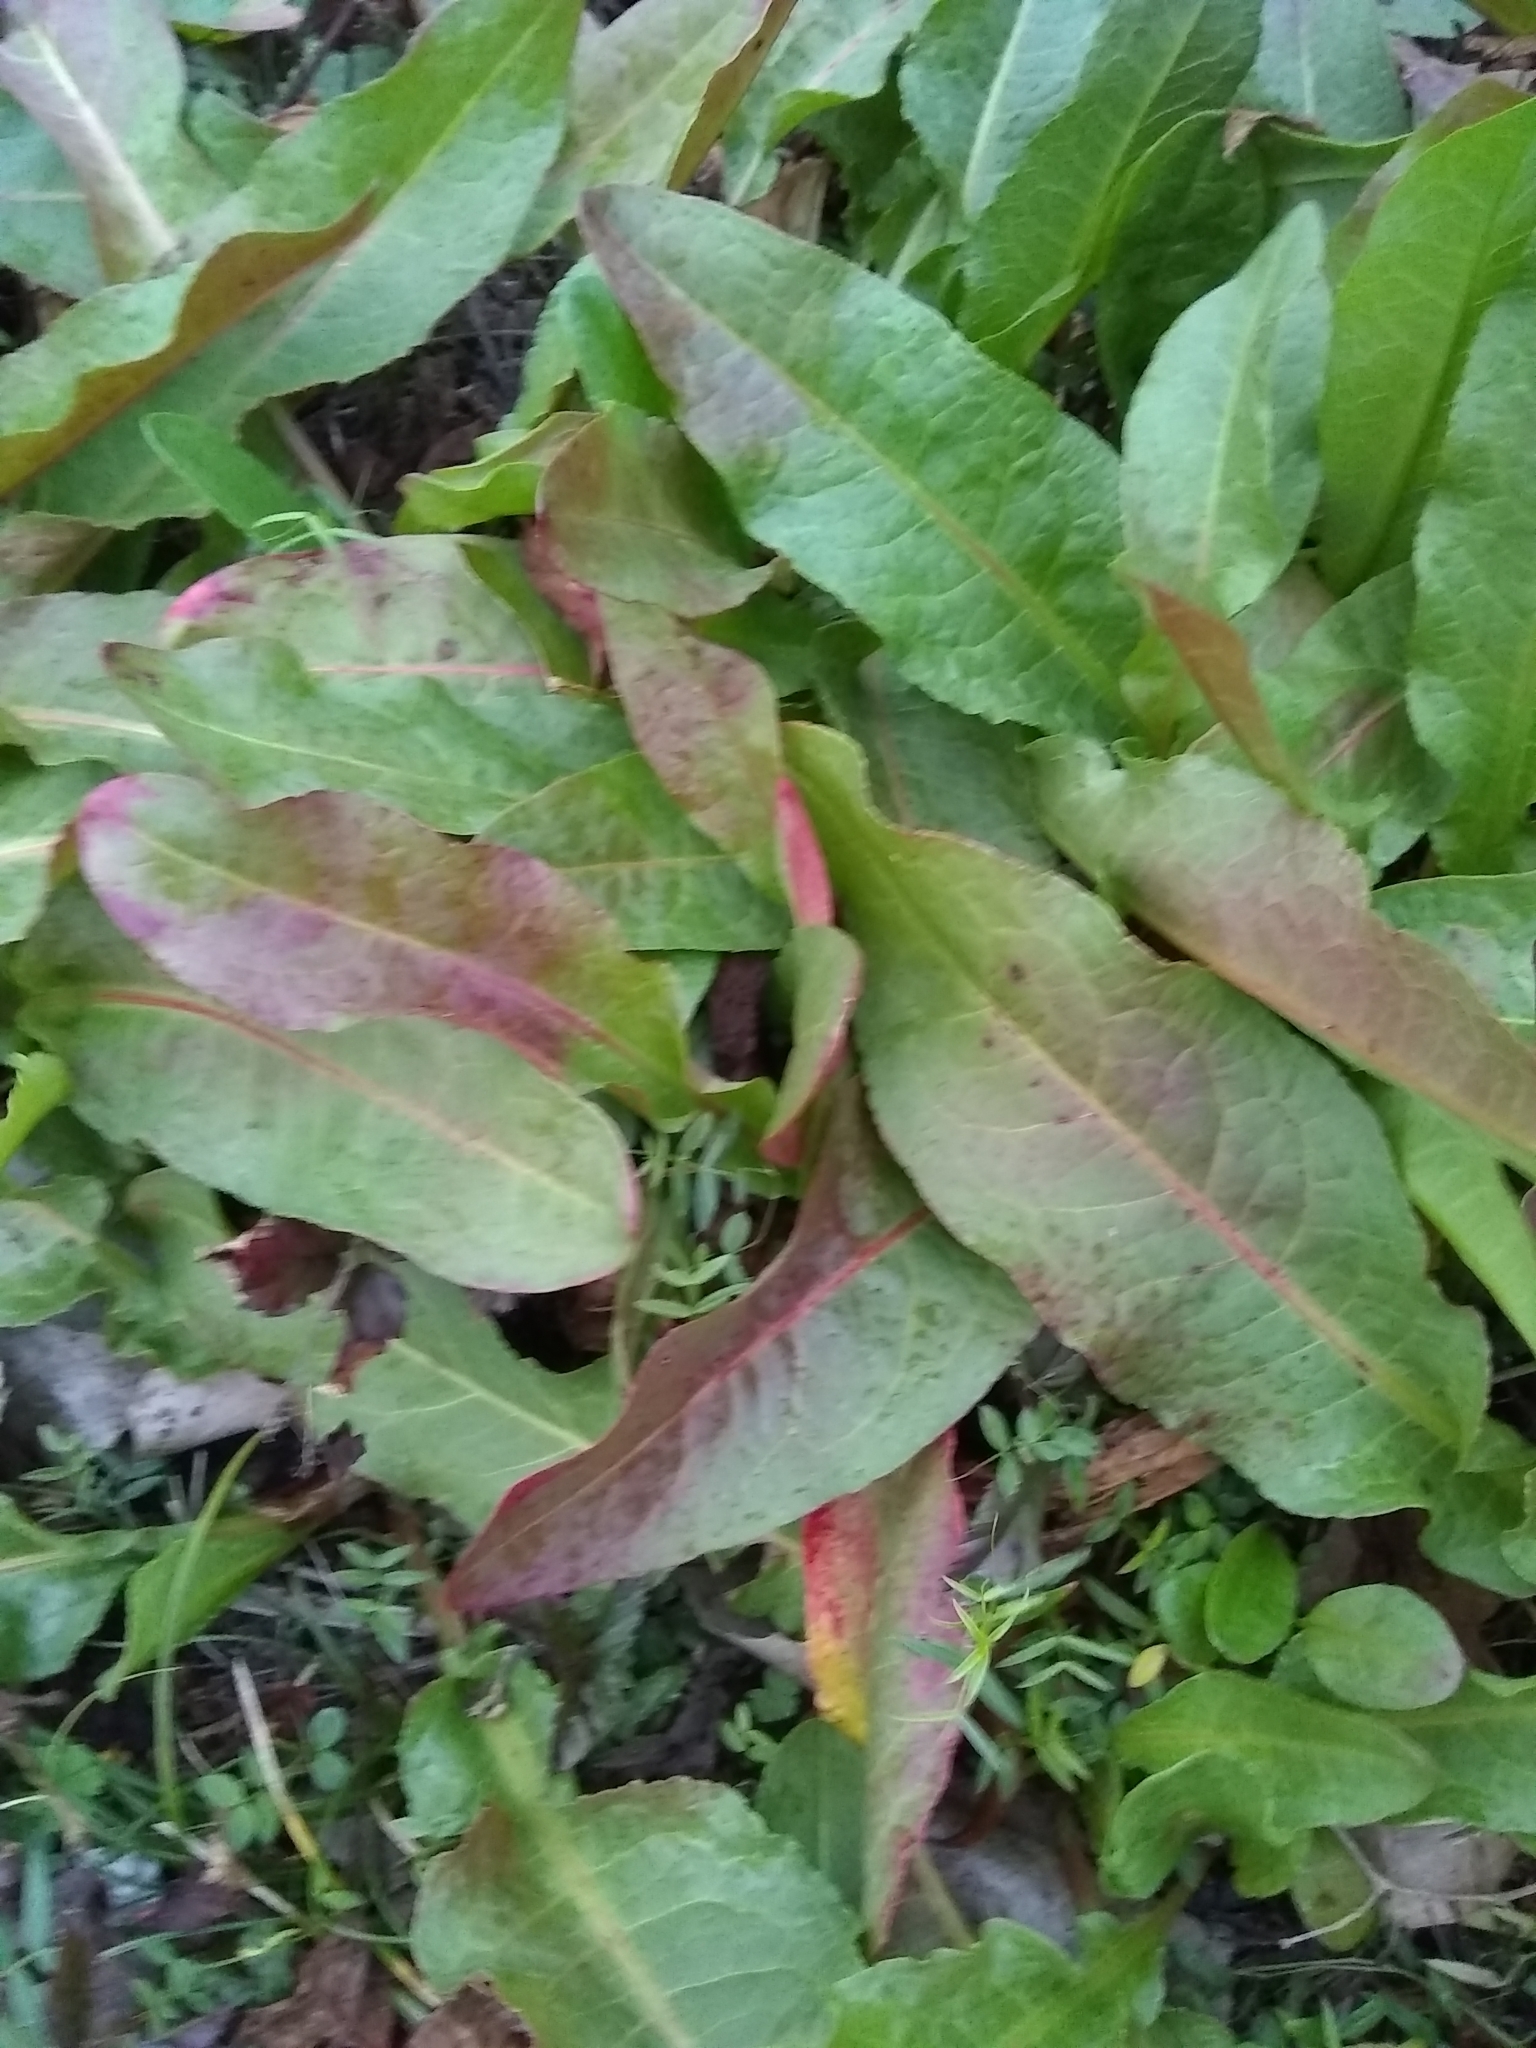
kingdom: Plantae
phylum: Tracheophyta
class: Magnoliopsida
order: Caryophyllales
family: Polygonaceae
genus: Rumex
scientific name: Rumex crispus
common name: Curled dock
